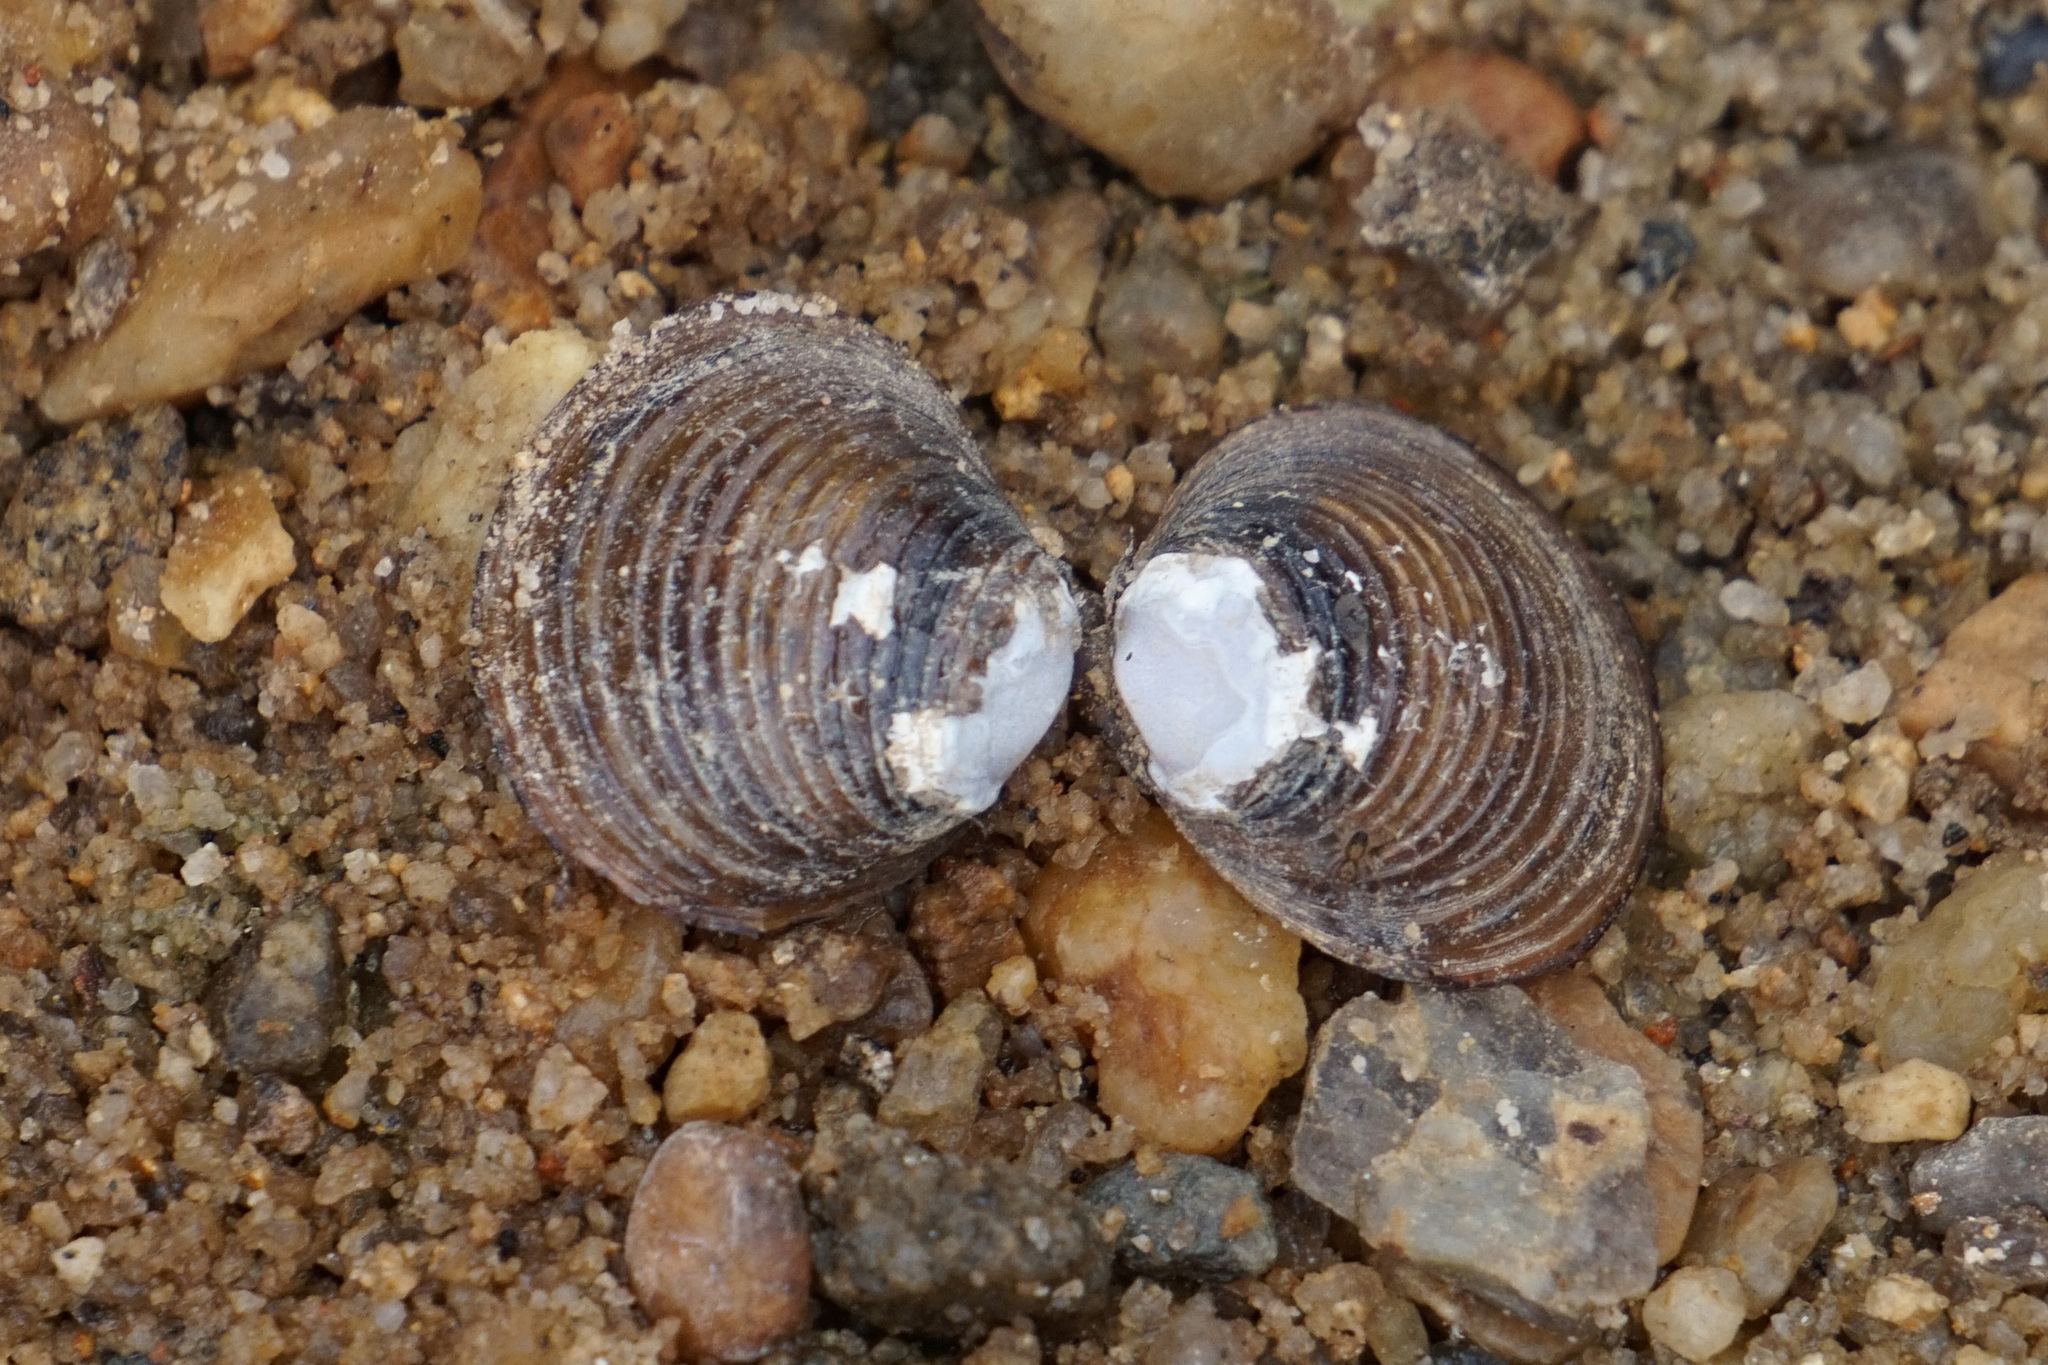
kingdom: Animalia
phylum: Mollusca
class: Bivalvia
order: Venerida
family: Cyrenidae
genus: Corbicula
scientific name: Corbicula fluminea
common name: Asian clam
